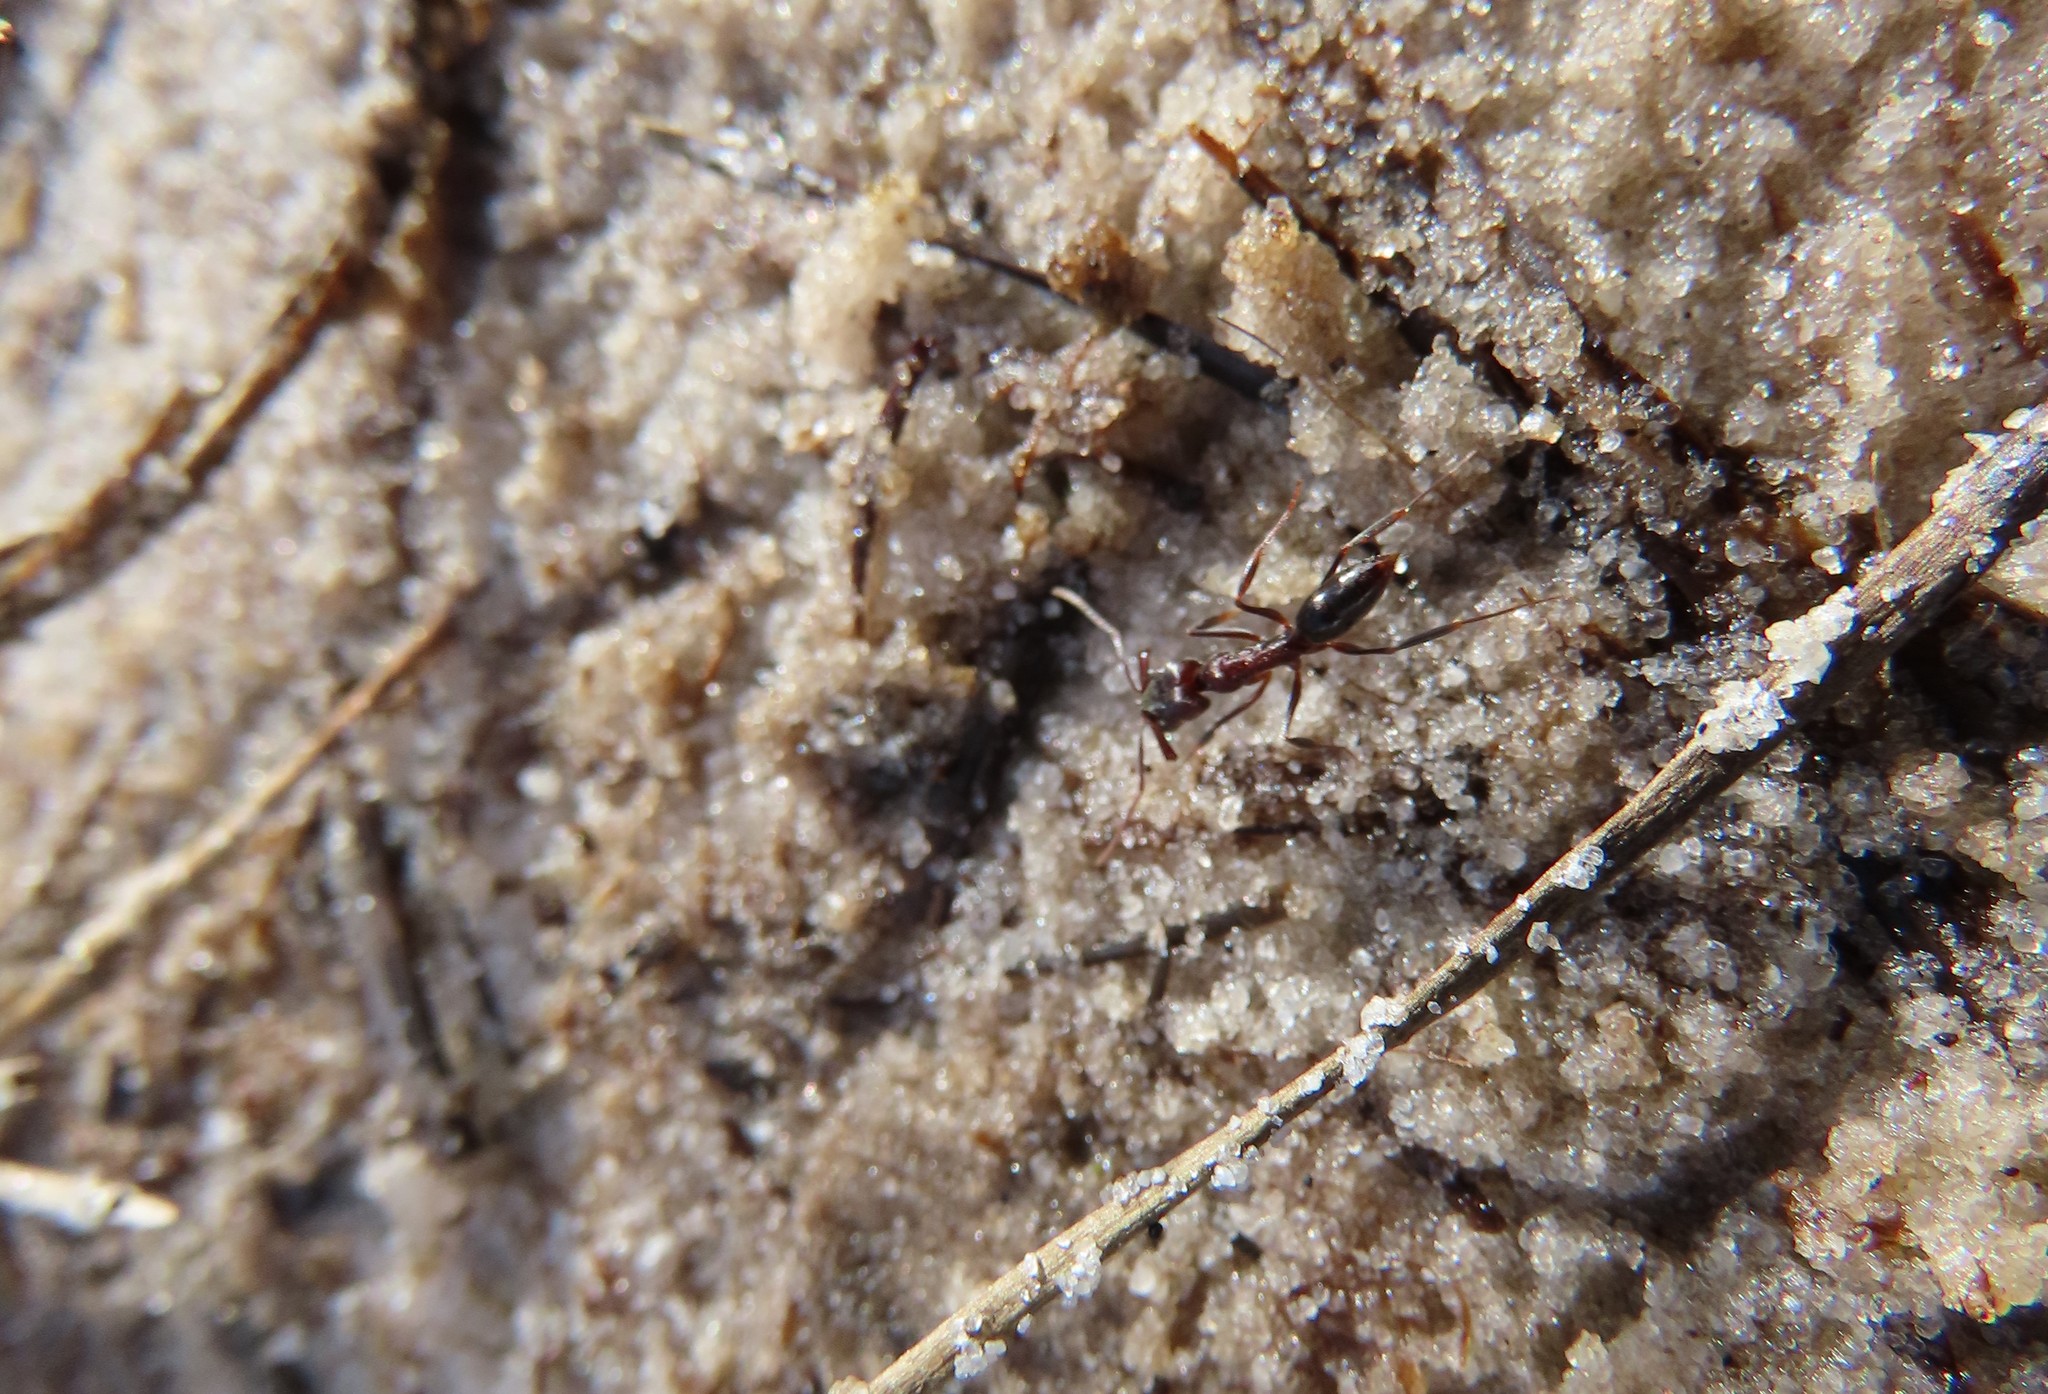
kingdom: Animalia
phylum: Arthropoda
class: Insecta
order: Hymenoptera
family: Formicidae
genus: Odontomachus
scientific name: Odontomachus brunneus
